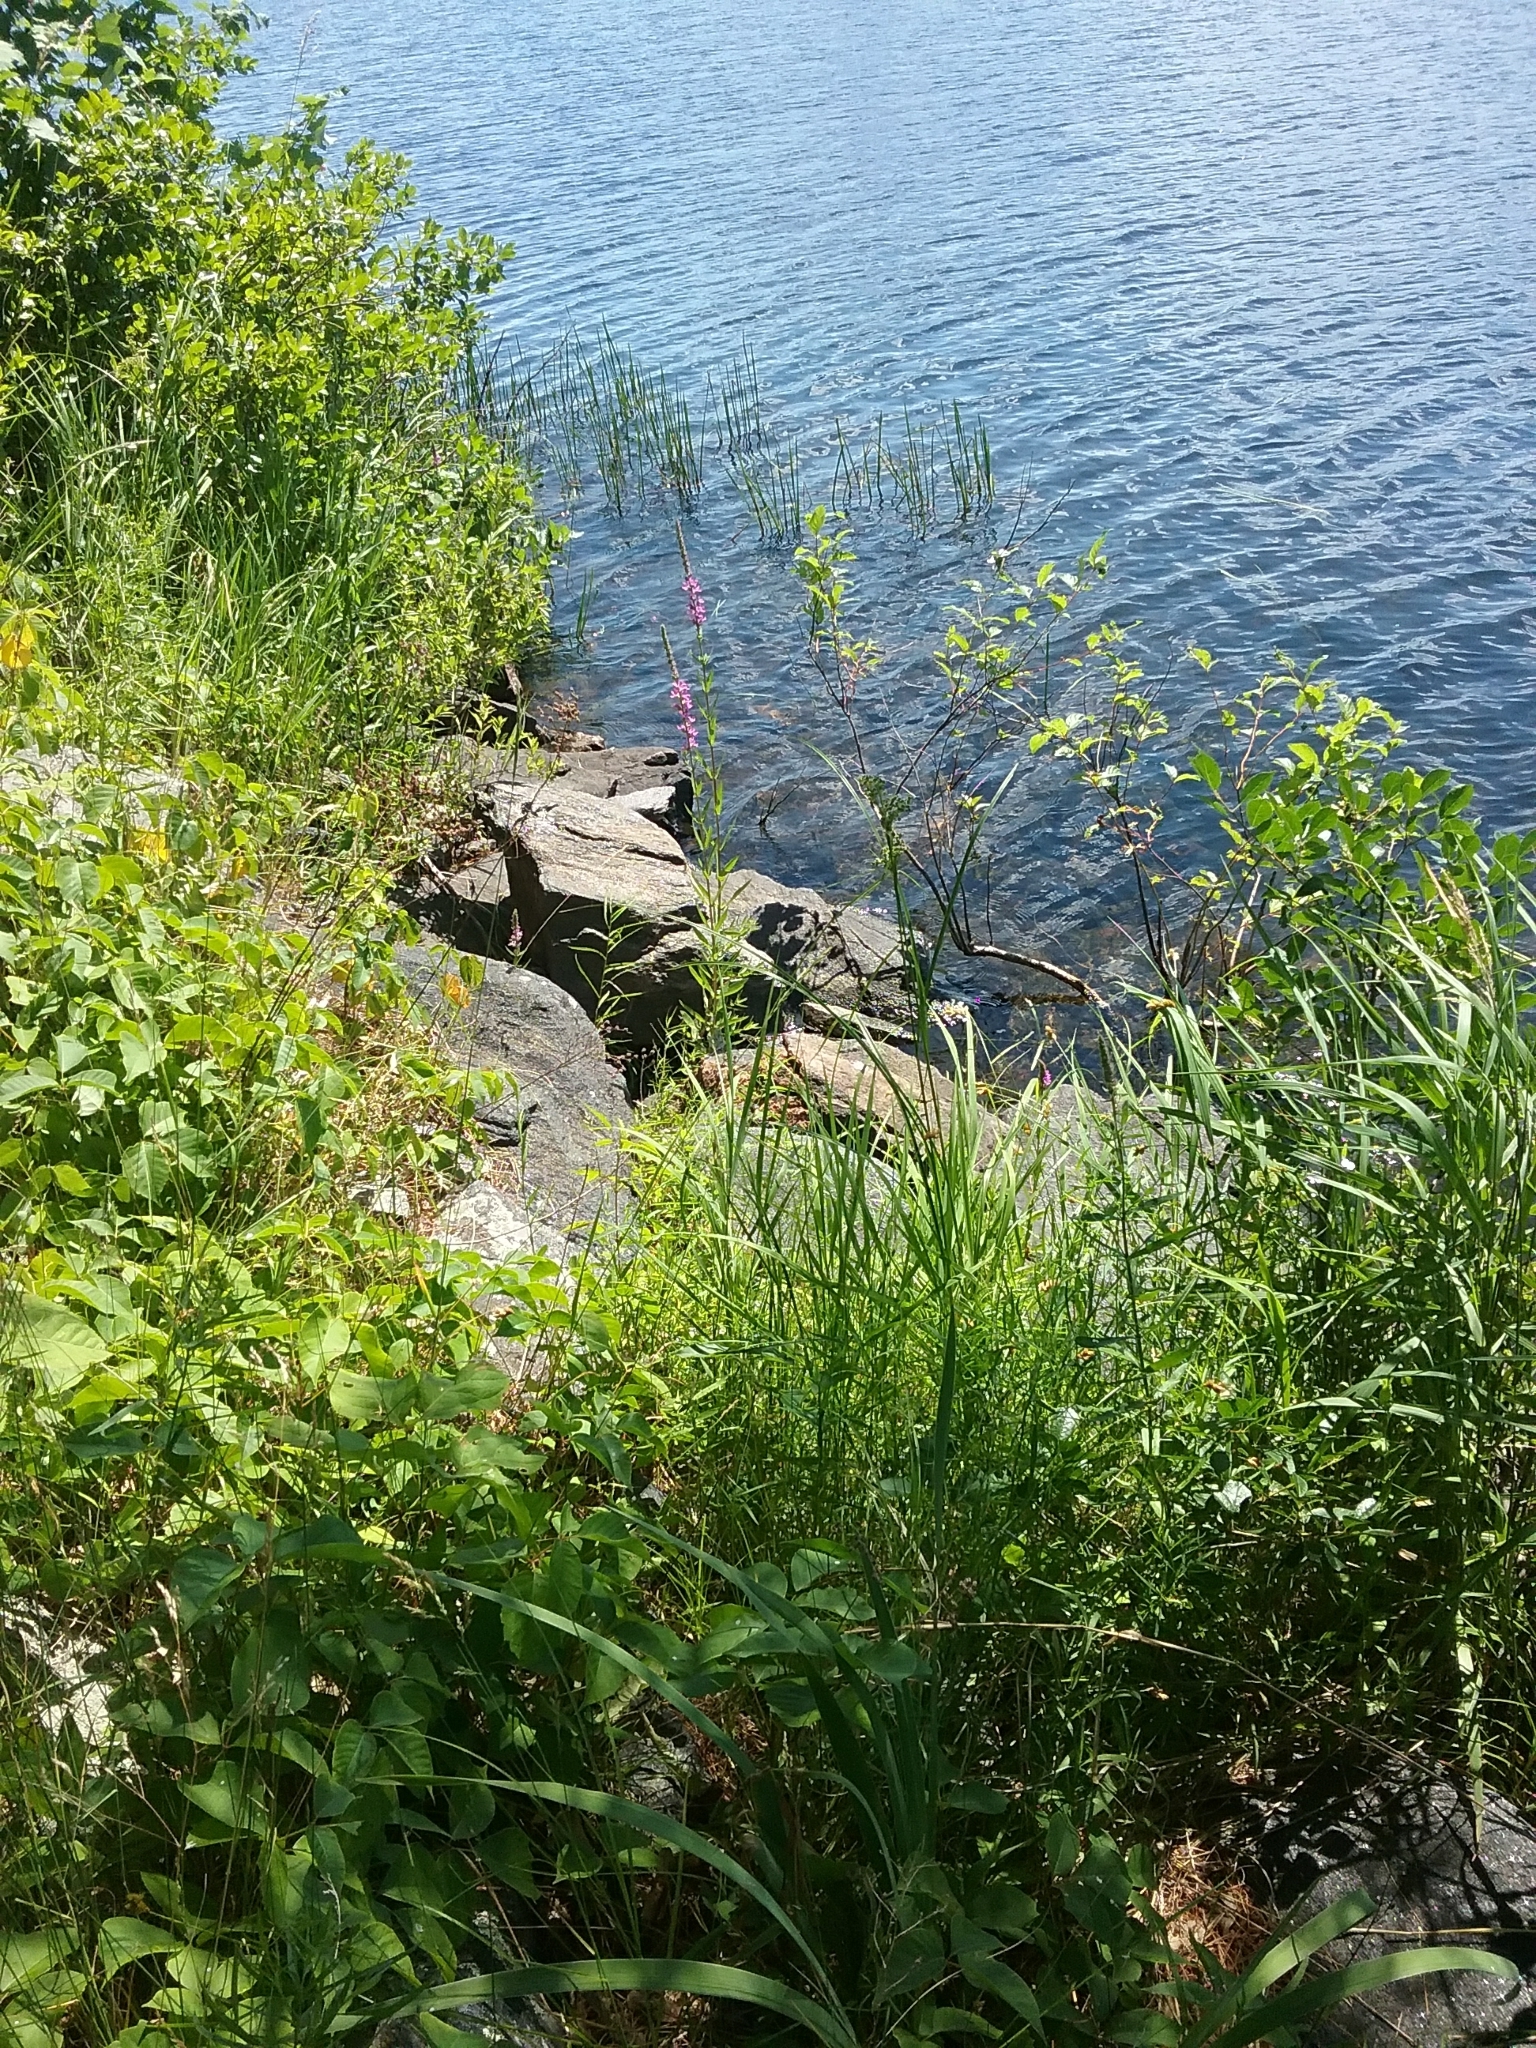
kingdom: Plantae
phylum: Tracheophyta
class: Magnoliopsida
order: Myrtales
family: Lythraceae
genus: Lythrum
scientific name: Lythrum salicaria
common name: Purple loosestrife
